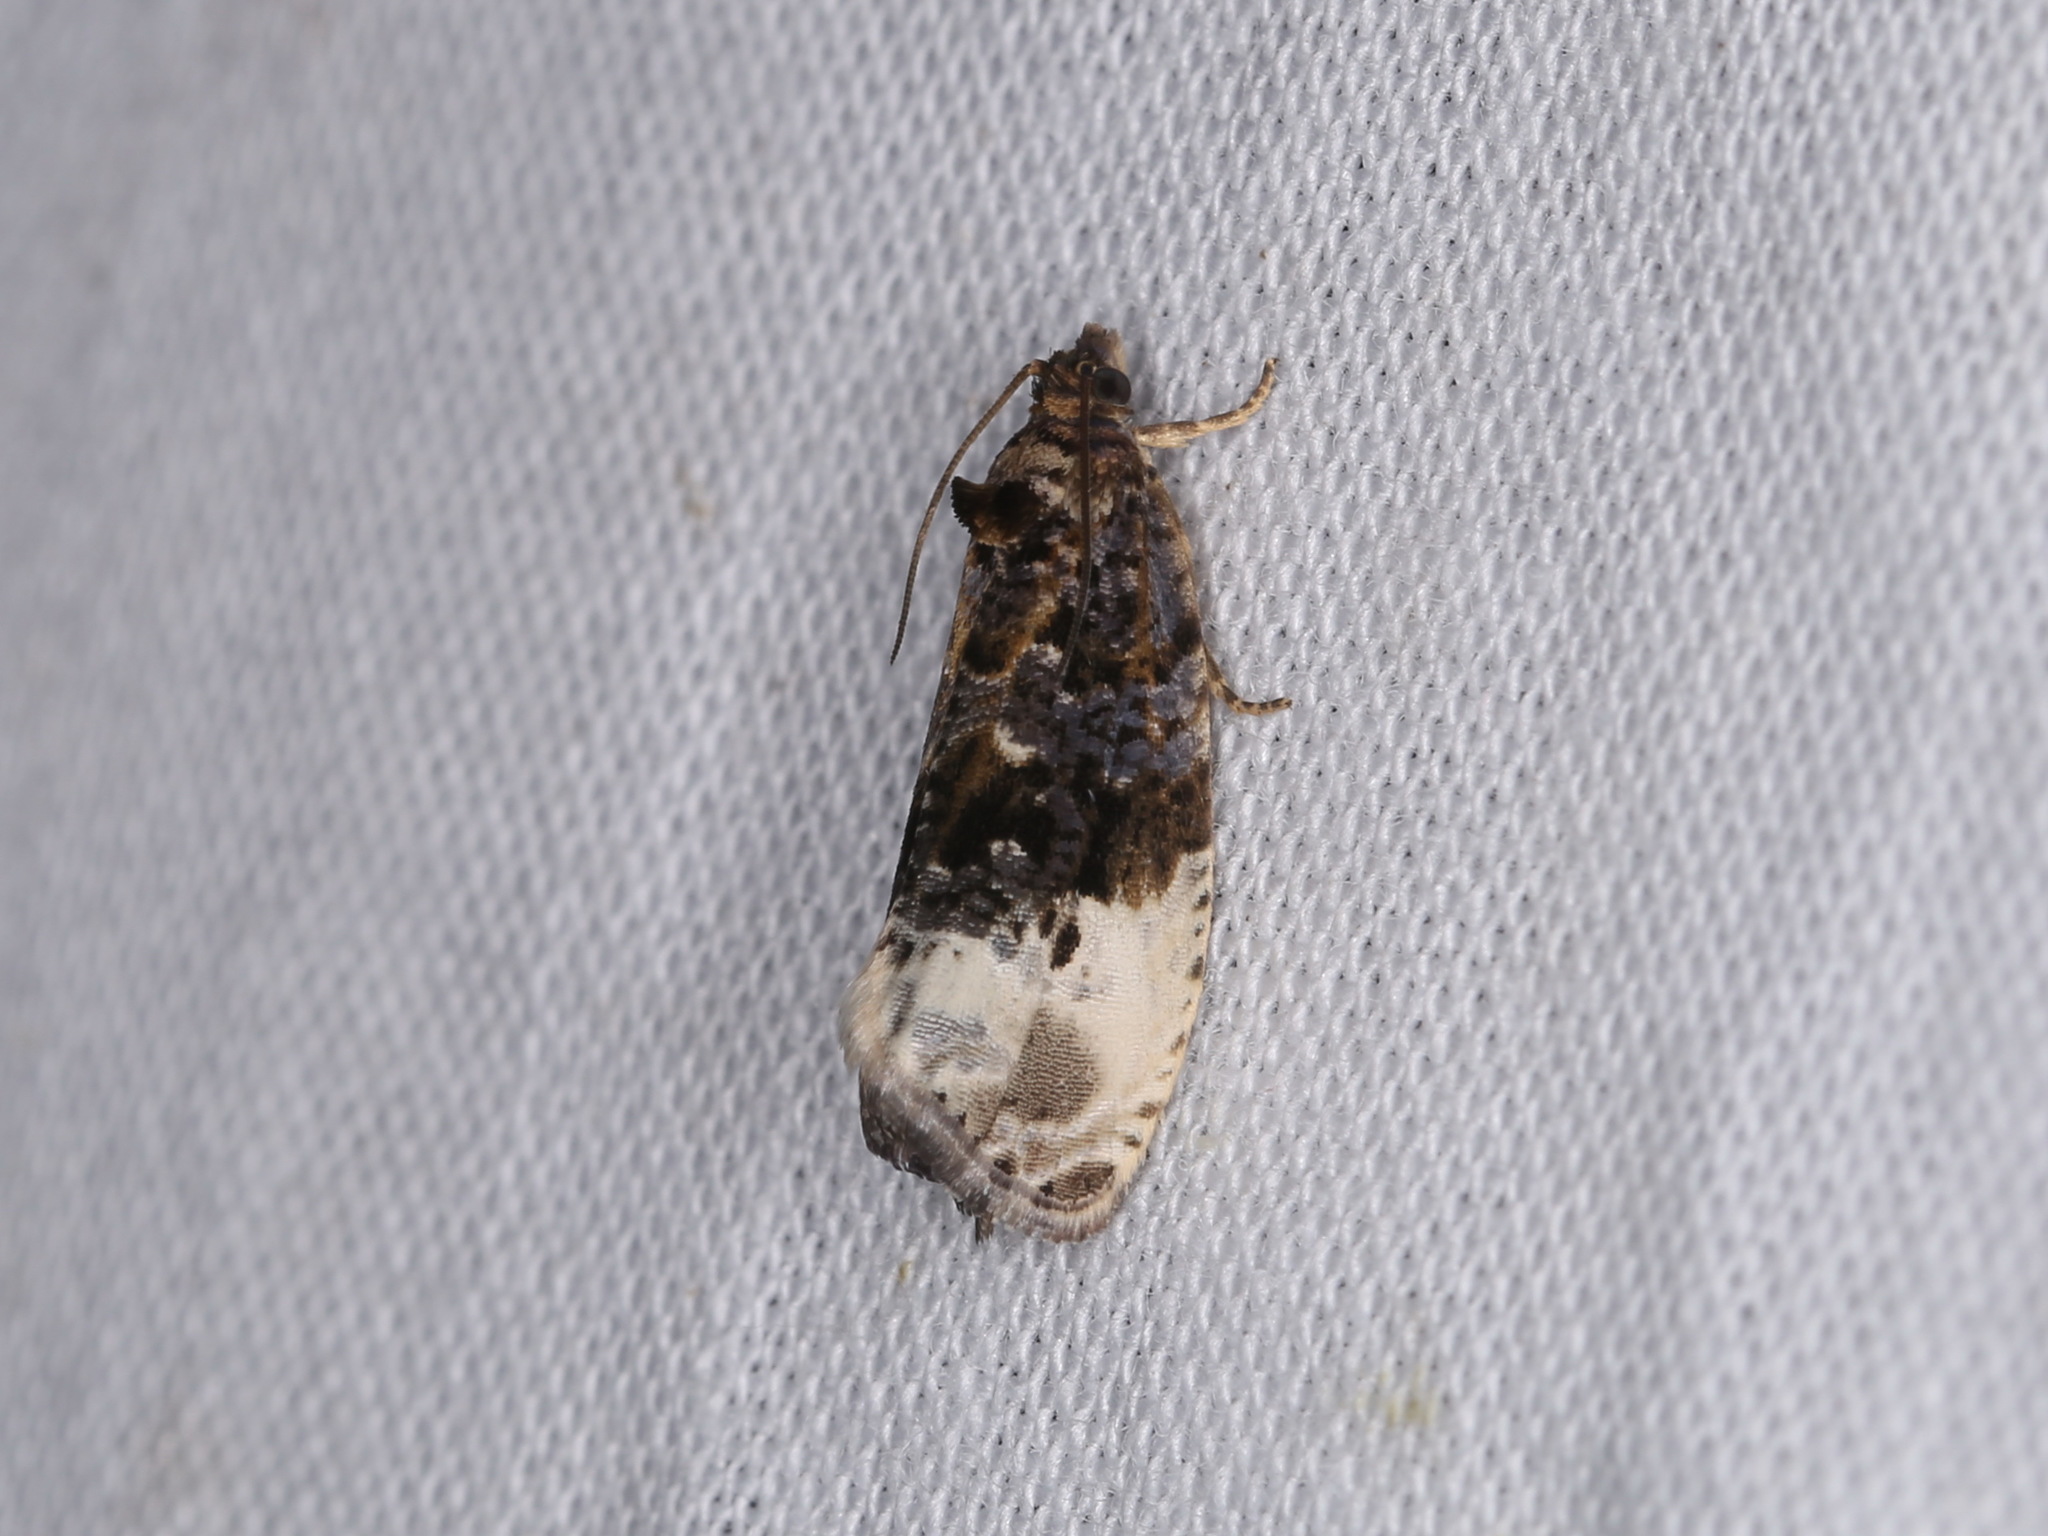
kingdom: Animalia
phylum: Arthropoda
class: Insecta
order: Lepidoptera
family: Tortricidae
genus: Hedya
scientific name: Hedya nubiferana
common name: Marbled orchard tortrix
